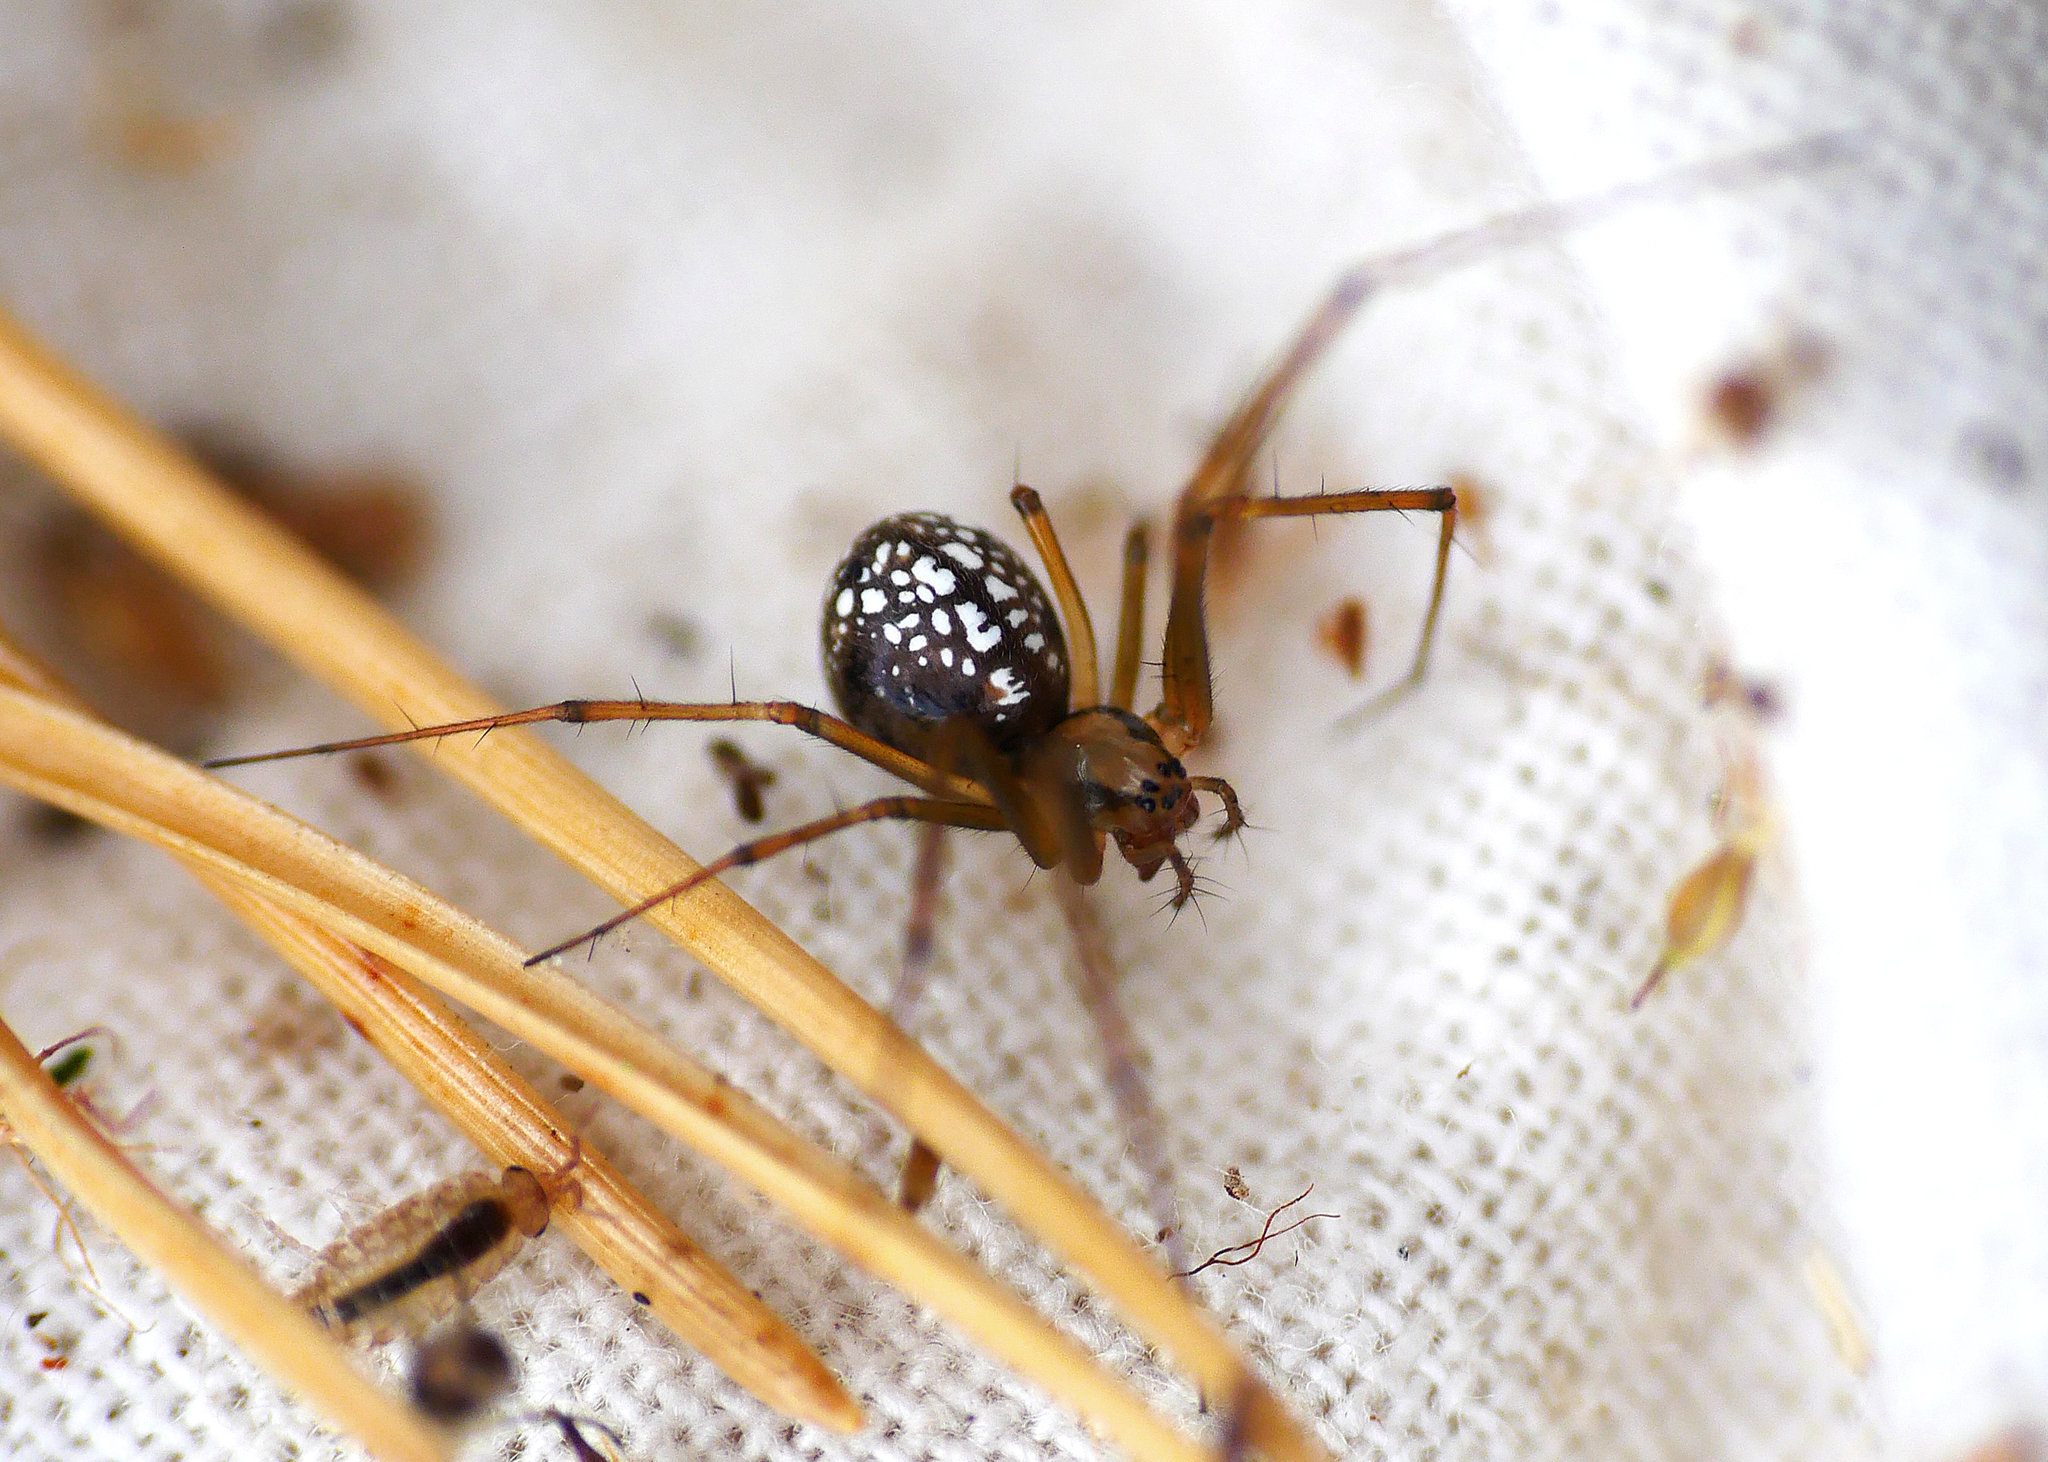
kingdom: Animalia
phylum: Arthropoda
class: Arachnida
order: Araneae
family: Linyphiidae
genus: Floronia
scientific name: Floronia bucculenta
